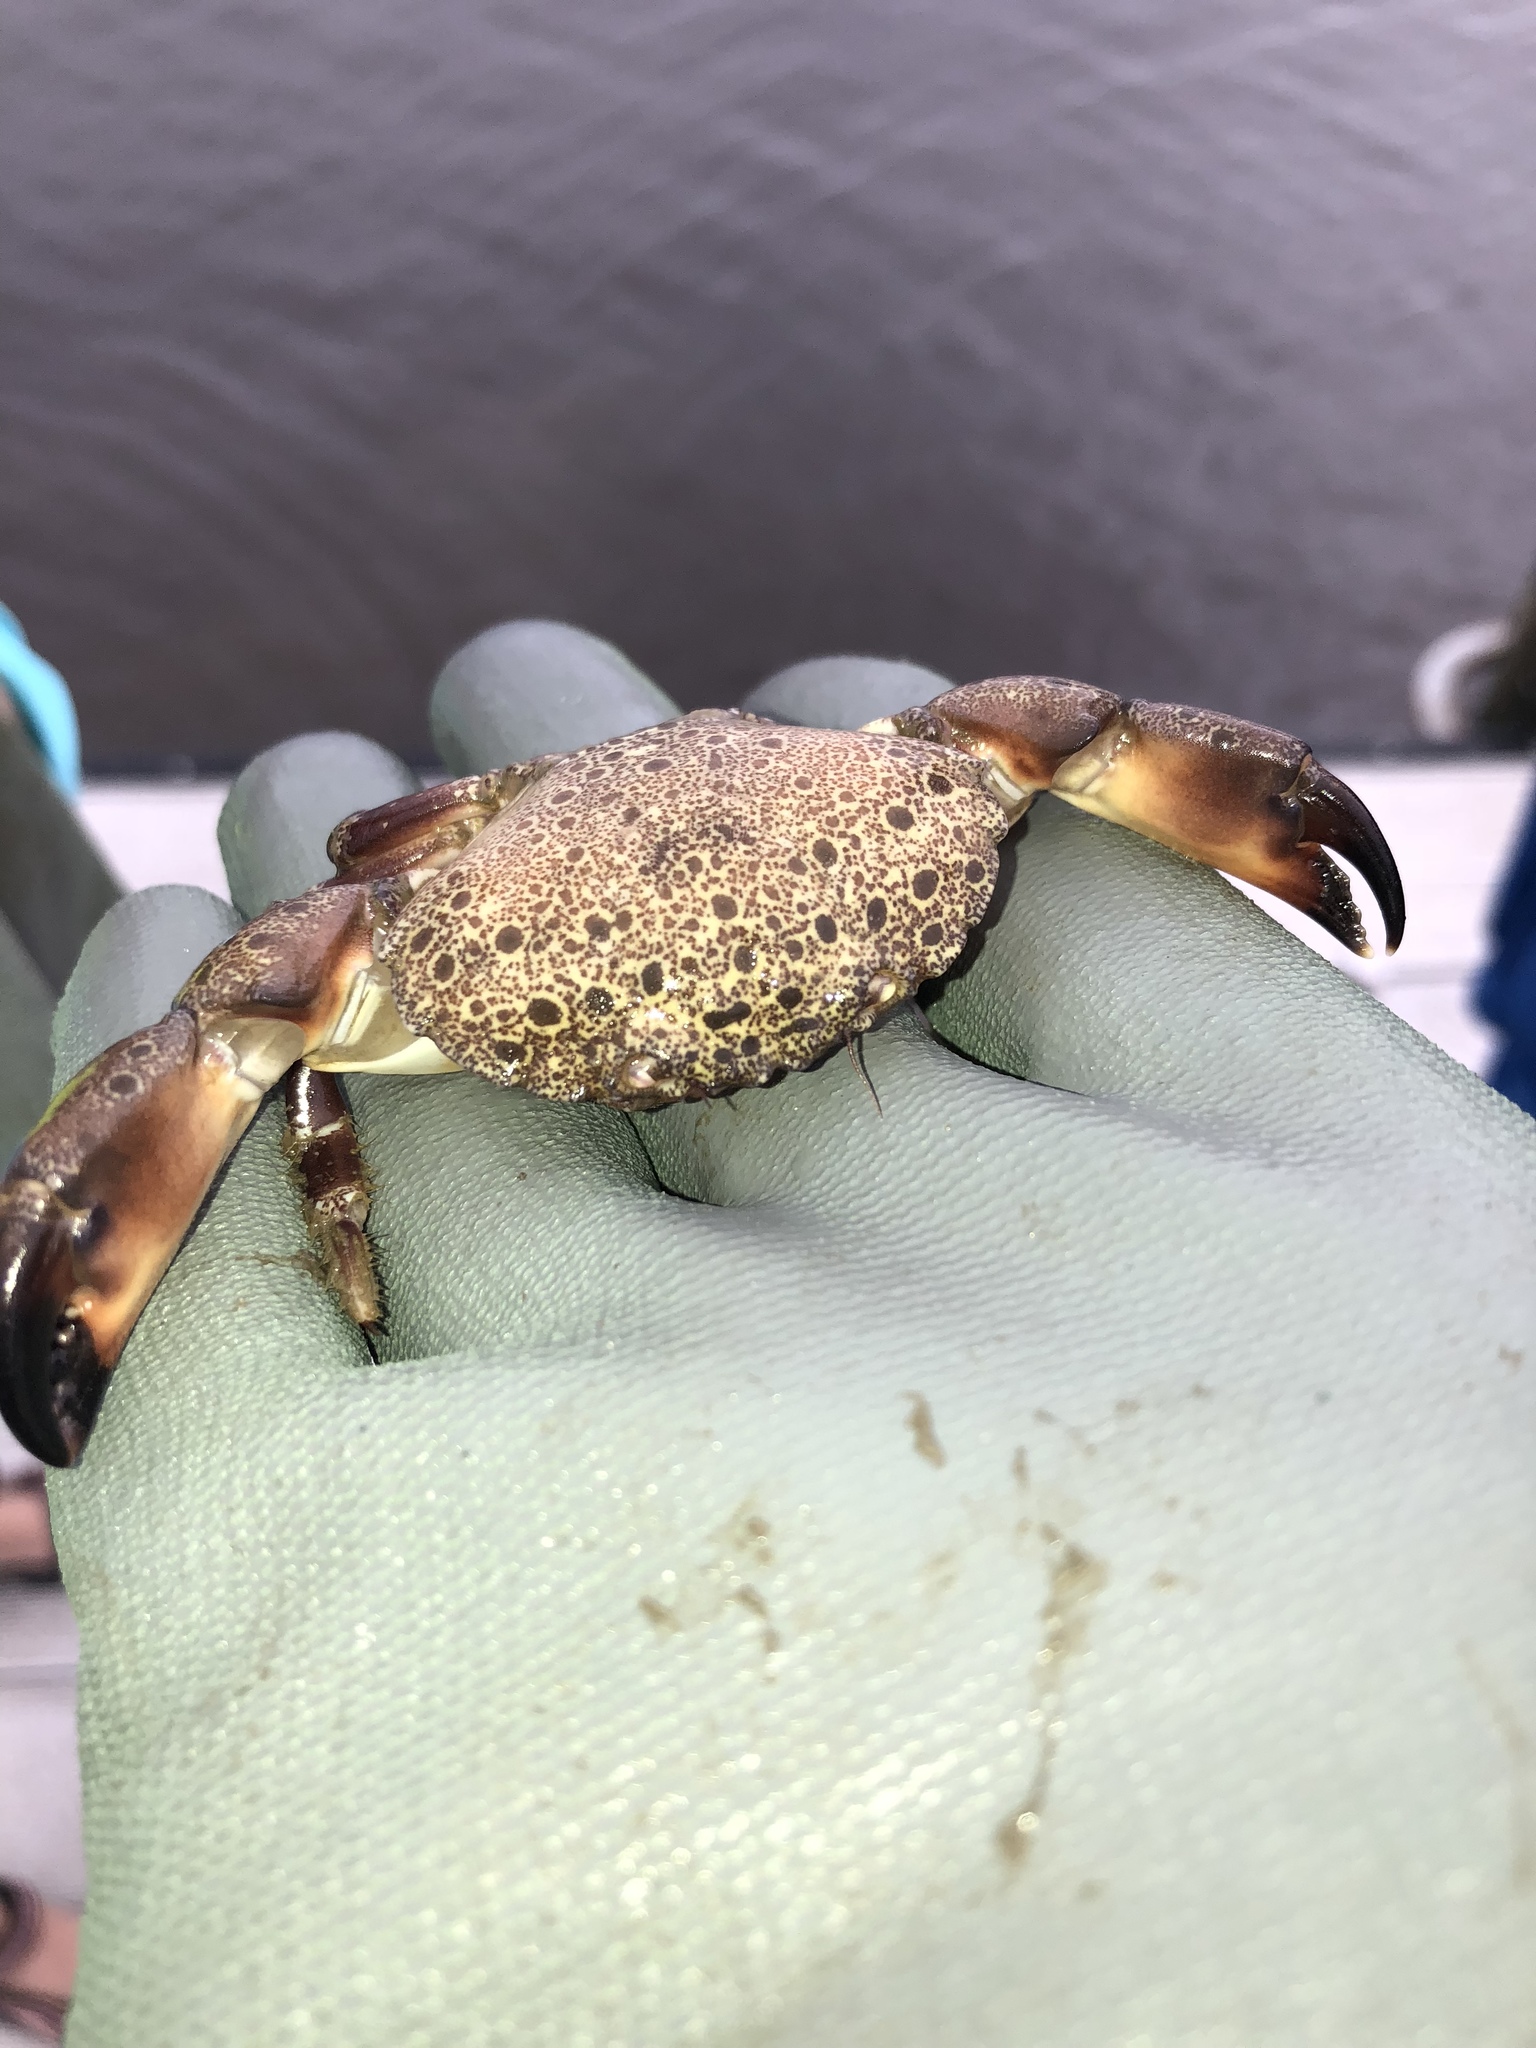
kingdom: Animalia
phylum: Arthropoda
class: Malacostraca
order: Decapoda
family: Menippidae
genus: Menippe
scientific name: Menippe mercenaria
